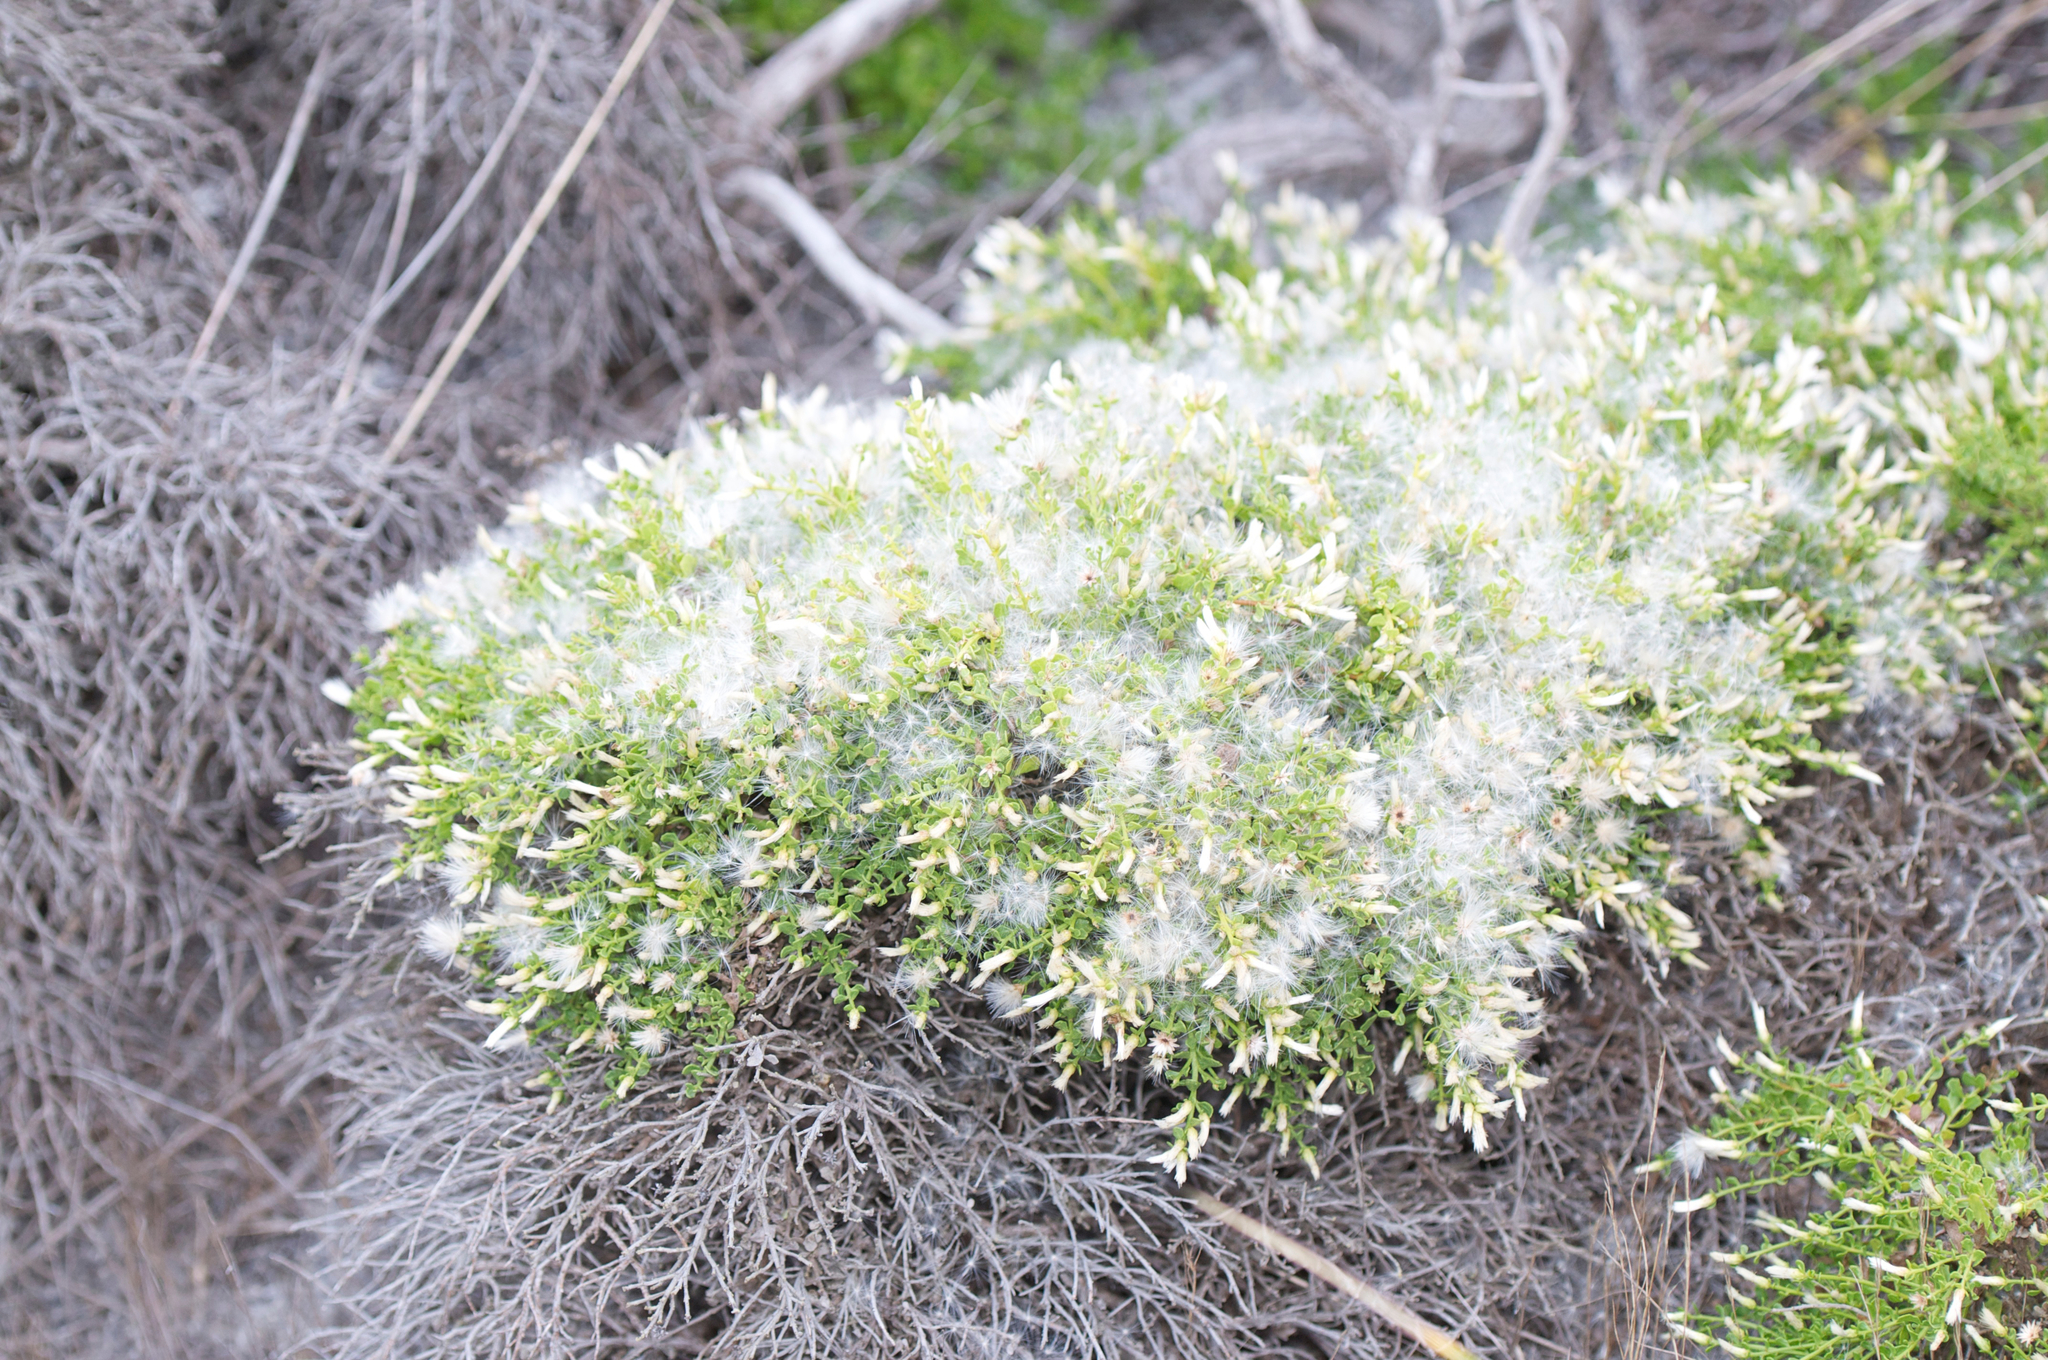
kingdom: Plantae
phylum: Tracheophyta
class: Magnoliopsida
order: Asterales
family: Asteraceae
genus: Baccharis
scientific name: Baccharis pilularis
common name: Coyotebrush
